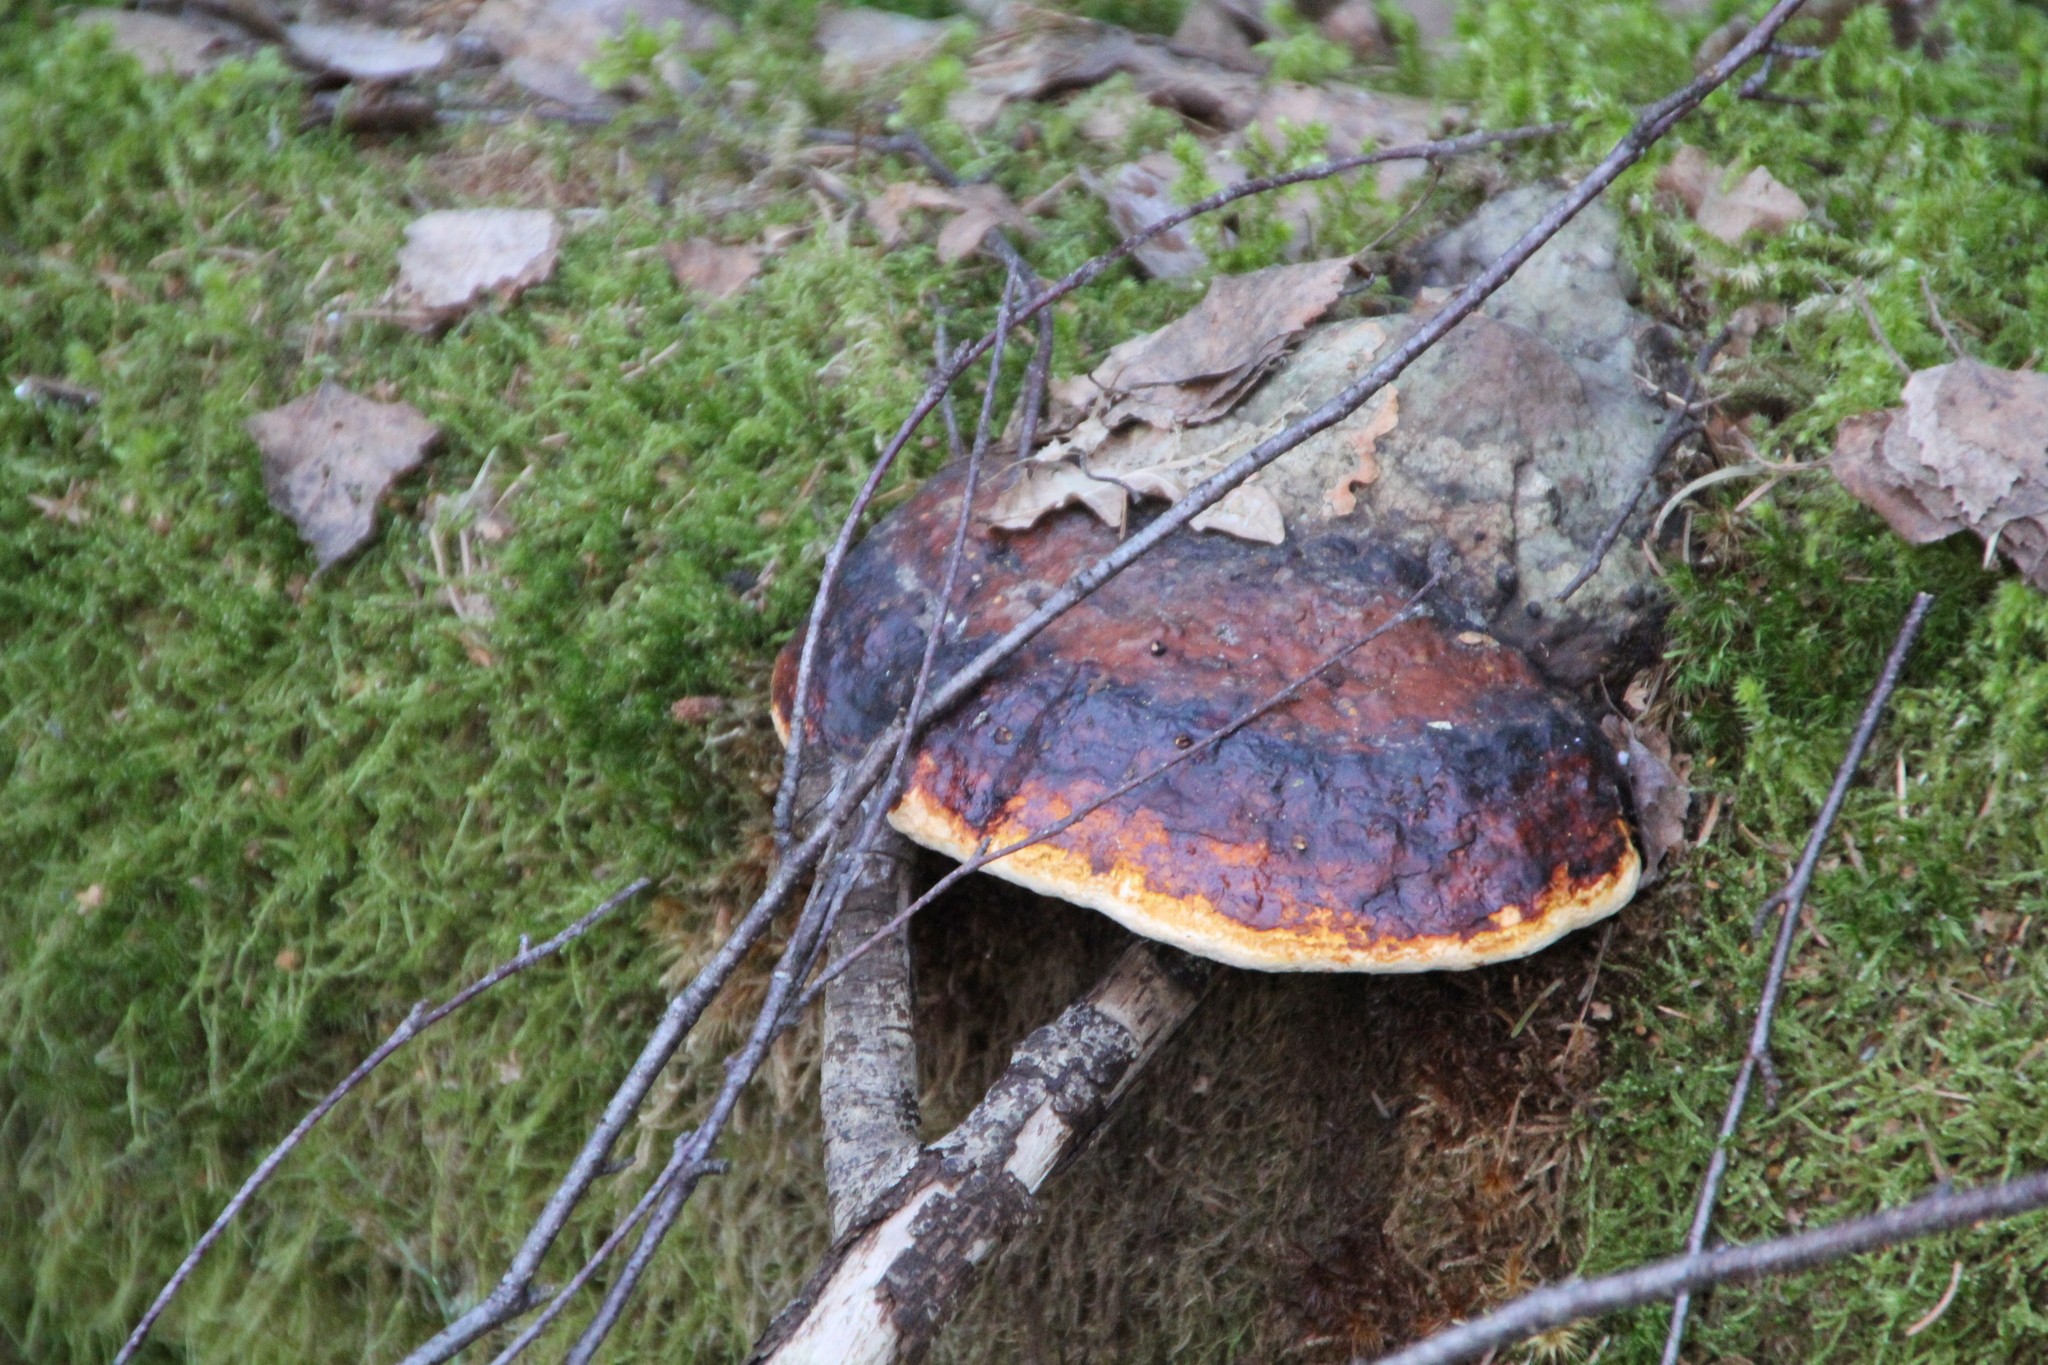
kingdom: Fungi
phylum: Basidiomycota
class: Agaricomycetes
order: Polyporales
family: Fomitopsidaceae
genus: Fomitopsis
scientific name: Fomitopsis pinicola
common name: Red-belted bracket
